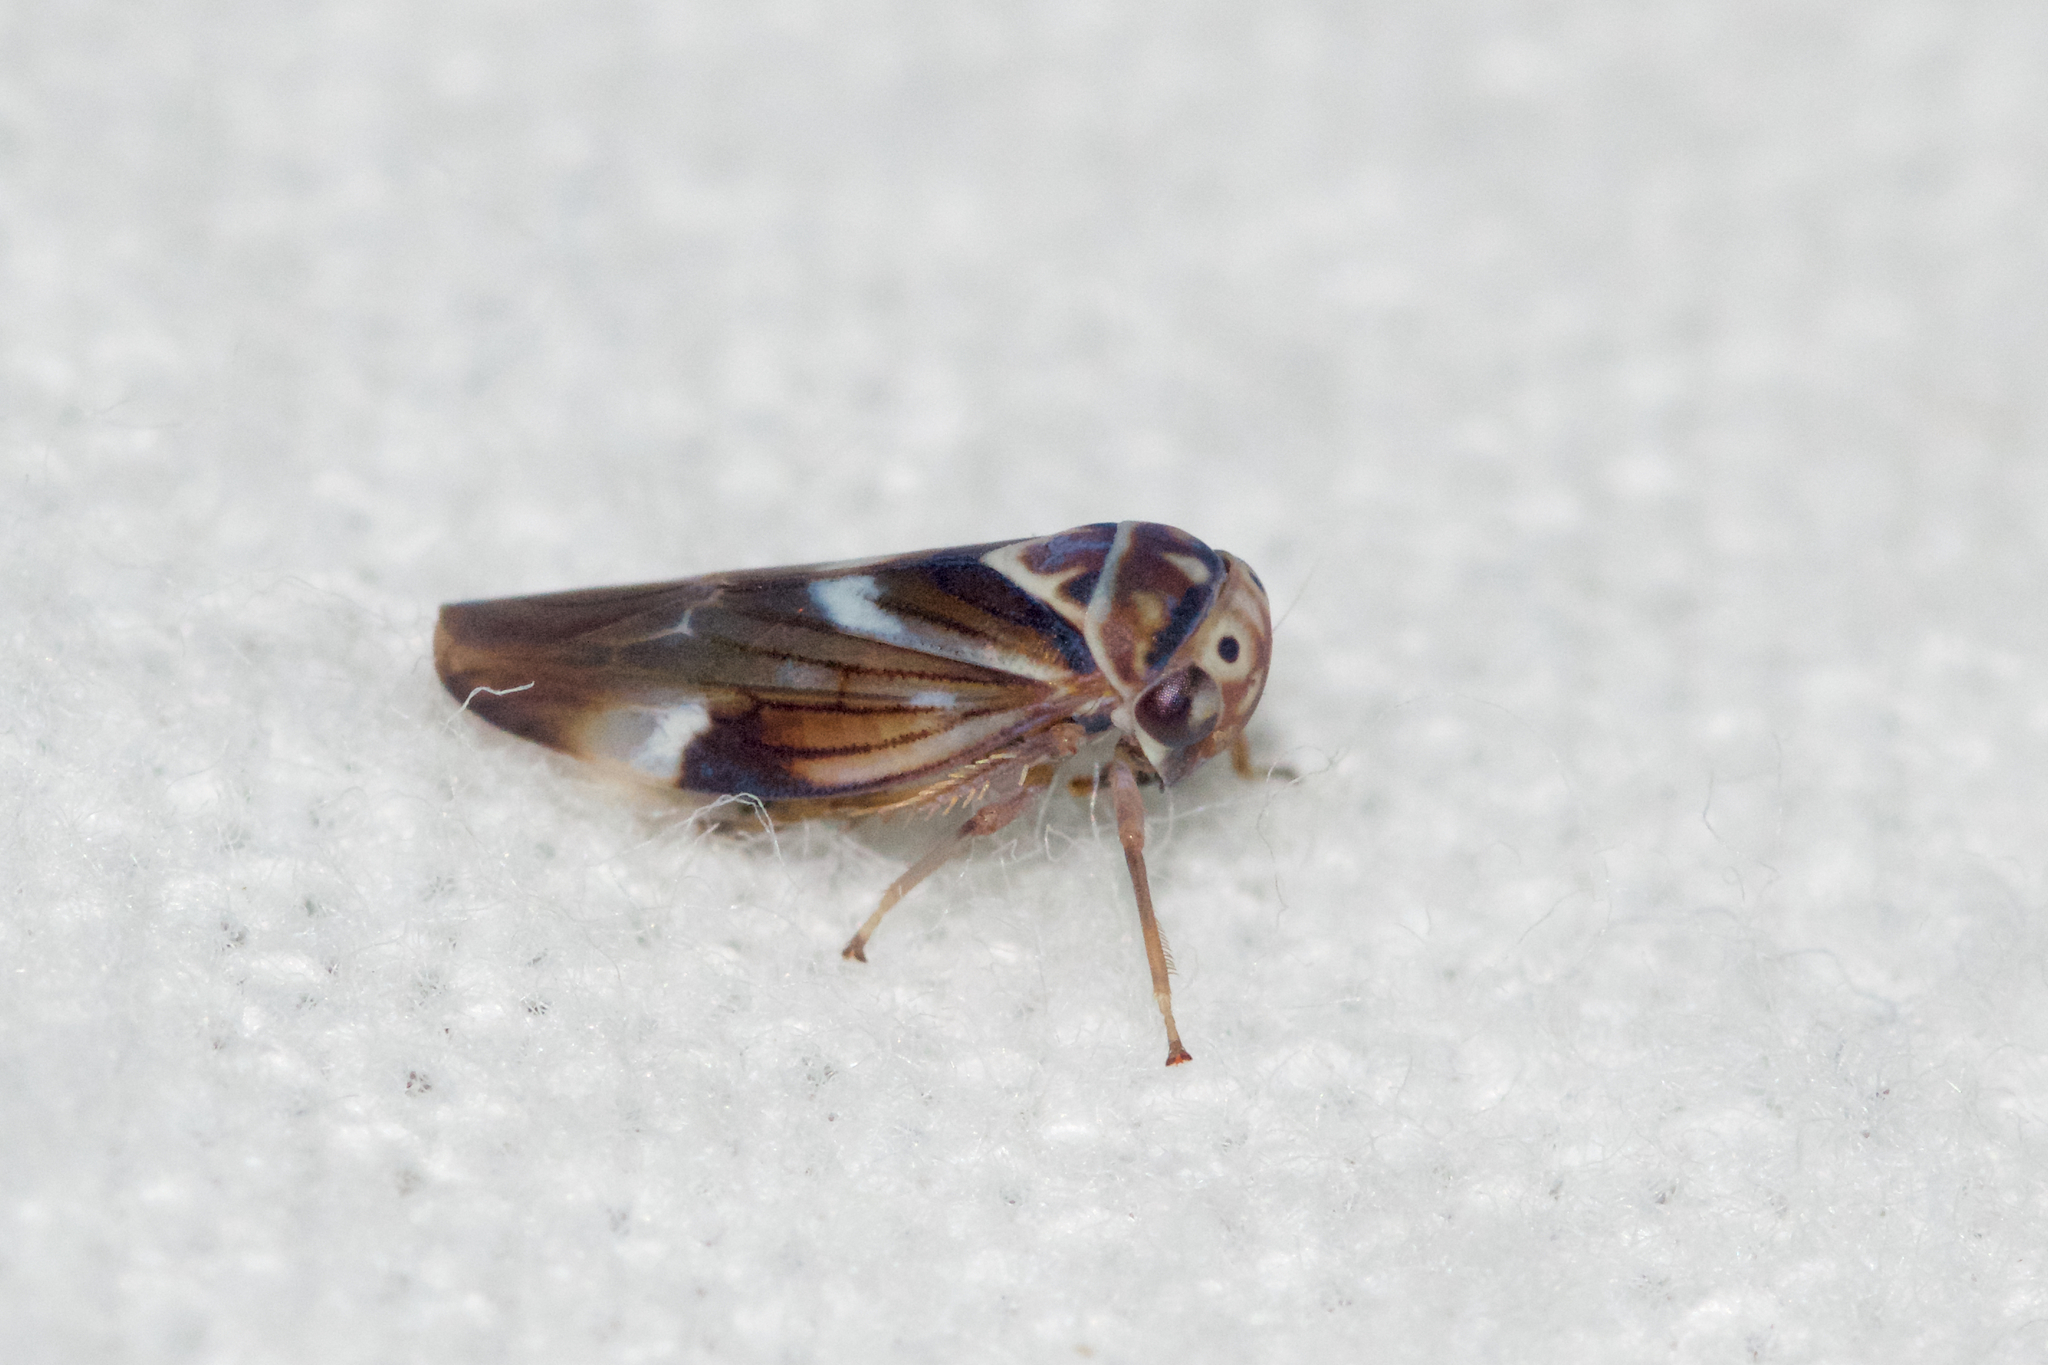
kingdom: Animalia
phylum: Arthropoda
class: Insecta
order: Hemiptera
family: Cicadellidae
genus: Balcanocerus
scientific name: Balcanocerus fitchi
